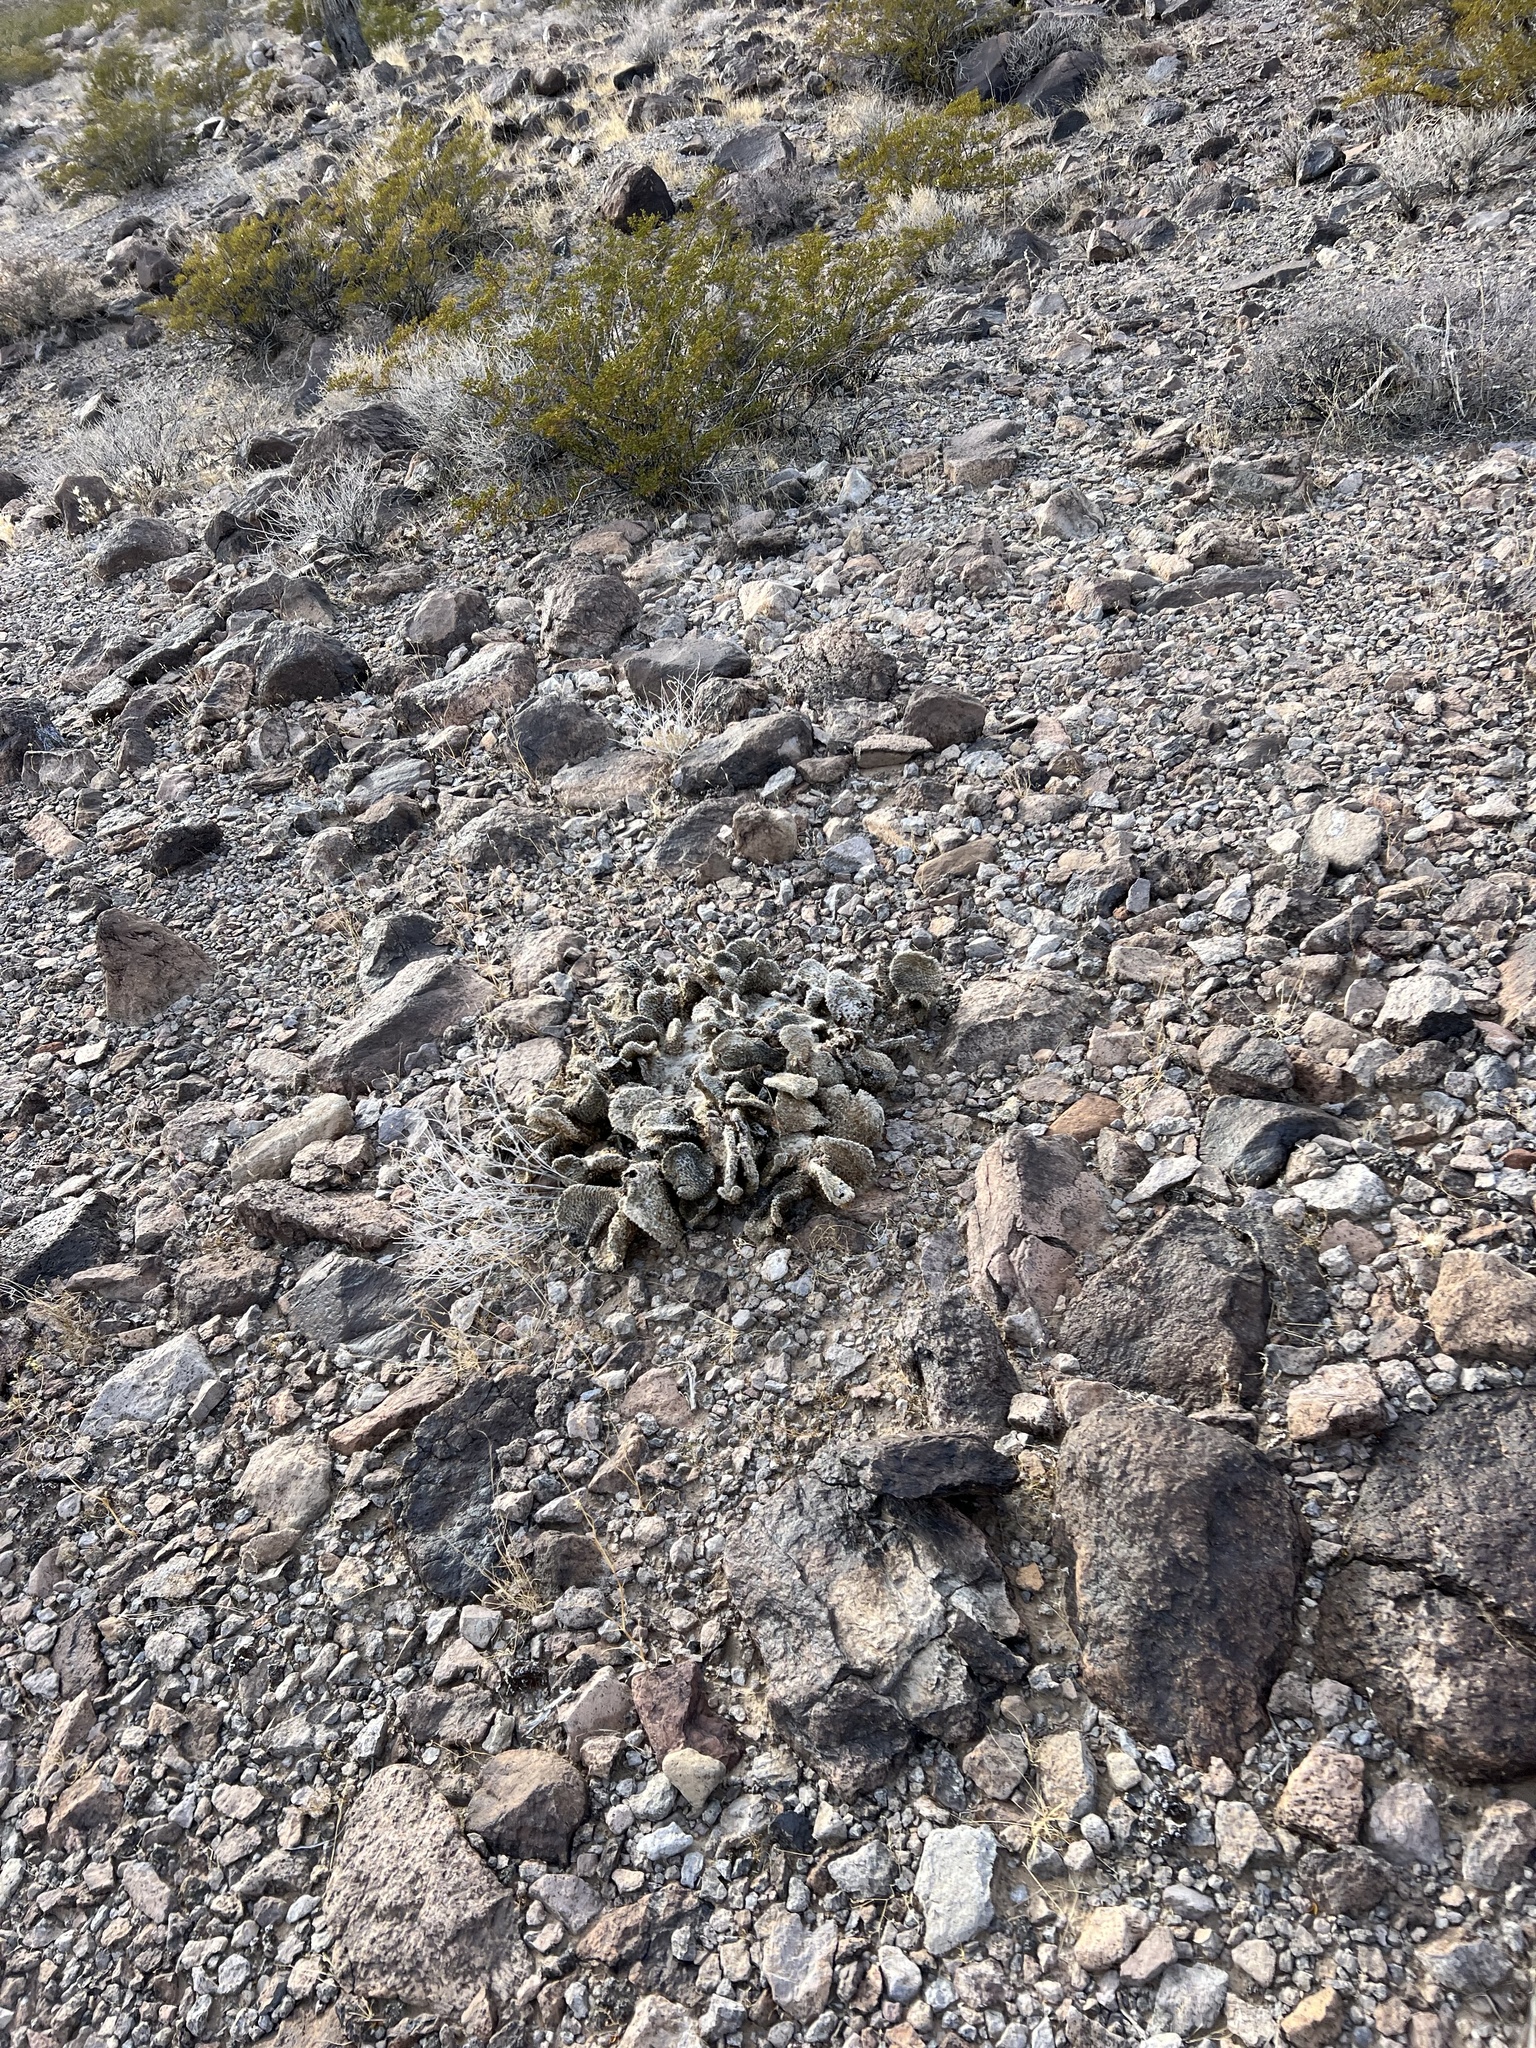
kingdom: Plantae
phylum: Tracheophyta
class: Magnoliopsida
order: Caryophyllales
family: Cactaceae
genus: Opuntia
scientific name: Opuntia basilaris
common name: Beavertail prickly-pear
